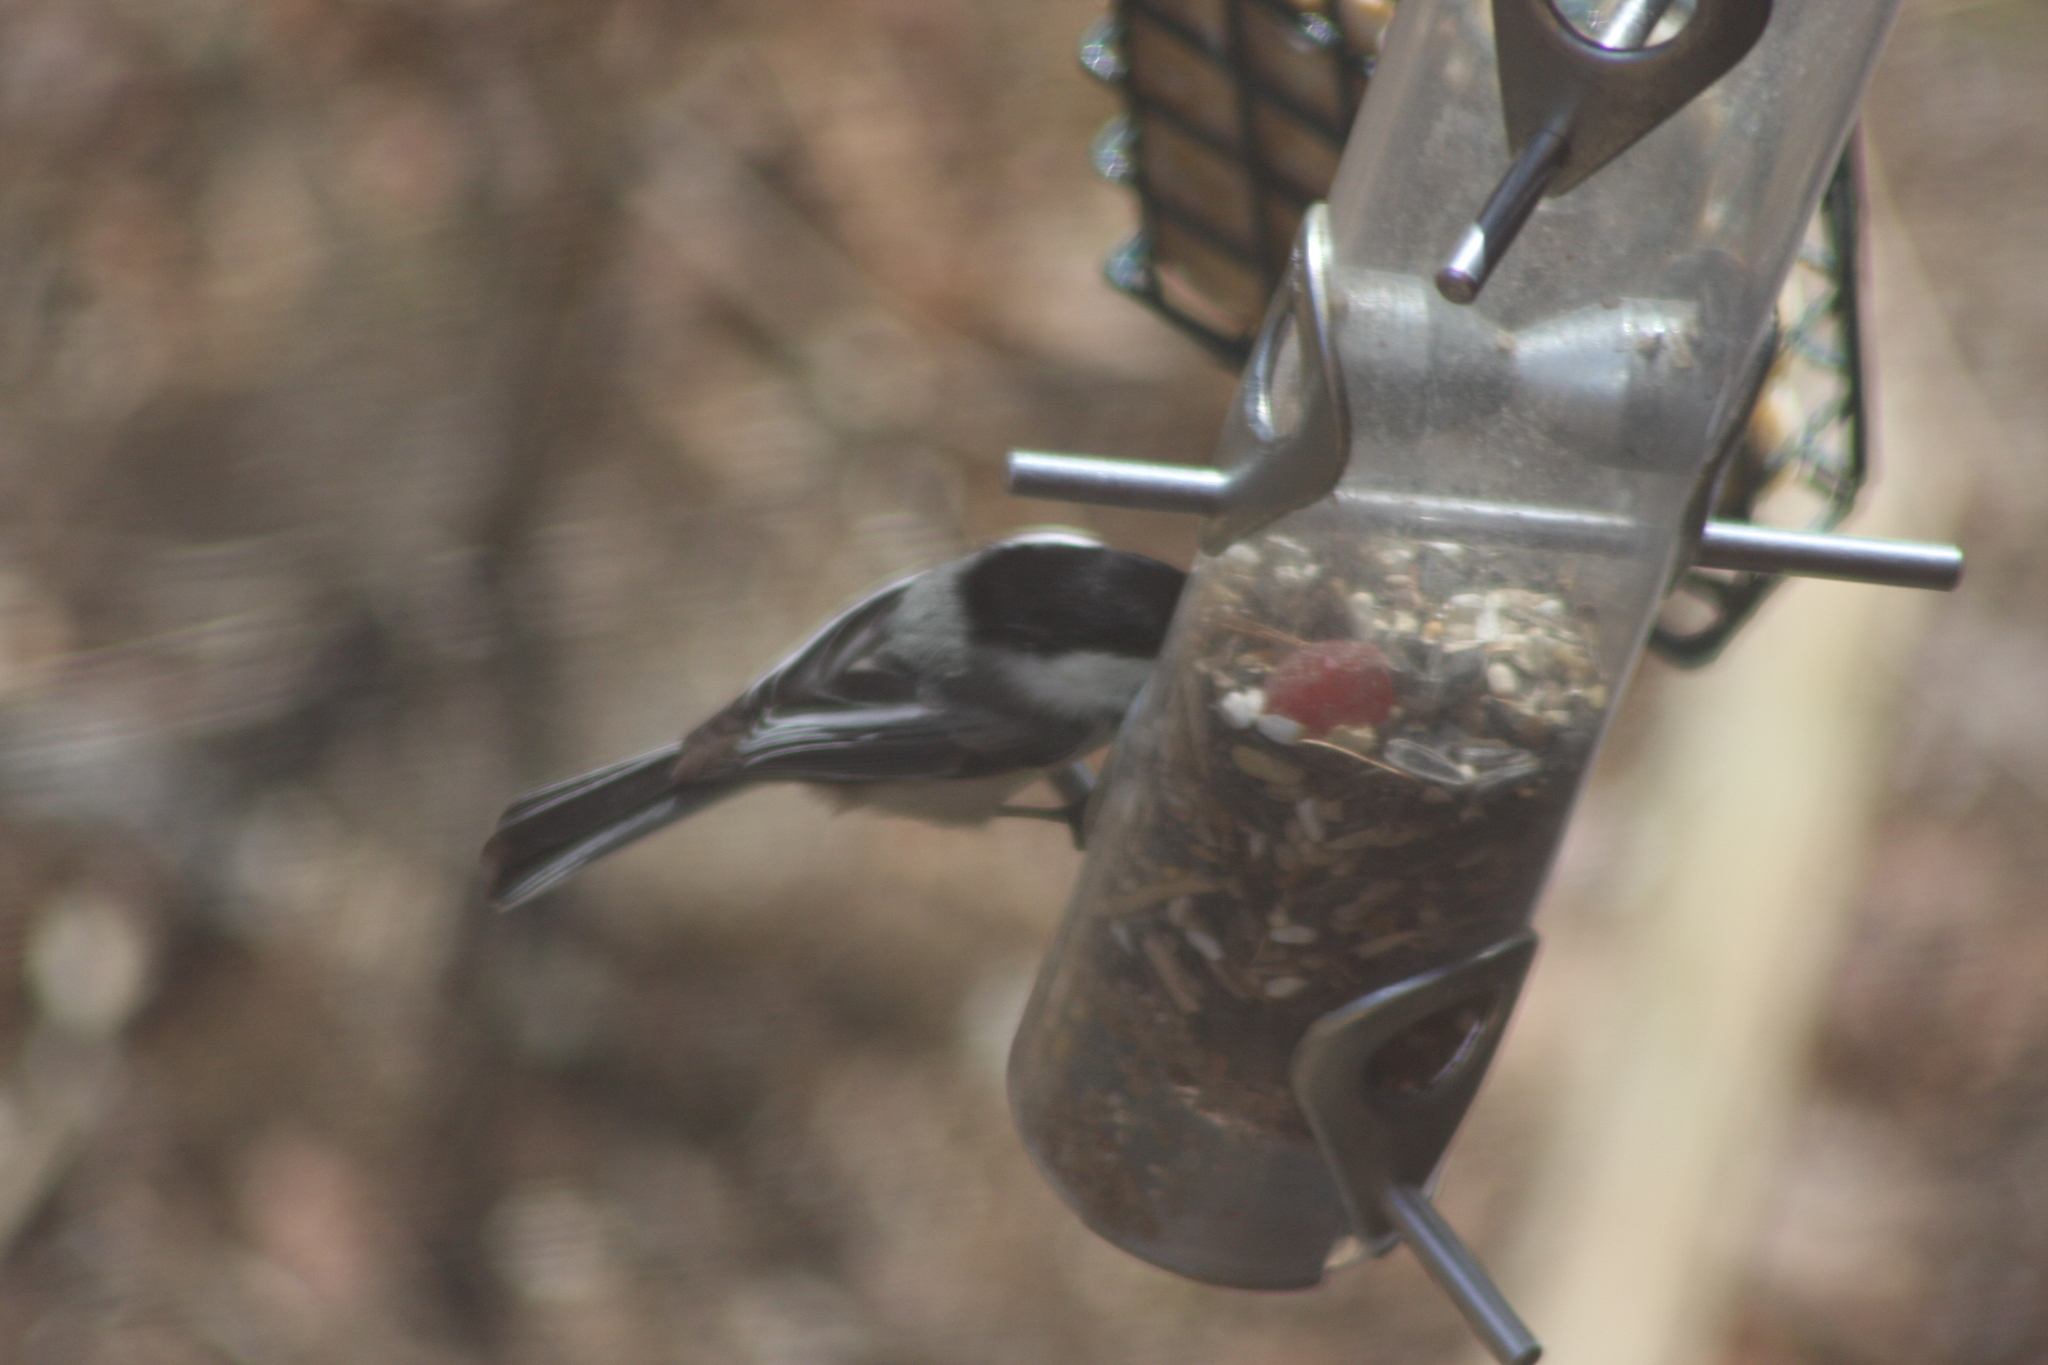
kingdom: Animalia
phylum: Chordata
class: Aves
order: Passeriformes
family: Paridae
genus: Poecile
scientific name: Poecile atricapillus
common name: Black-capped chickadee
